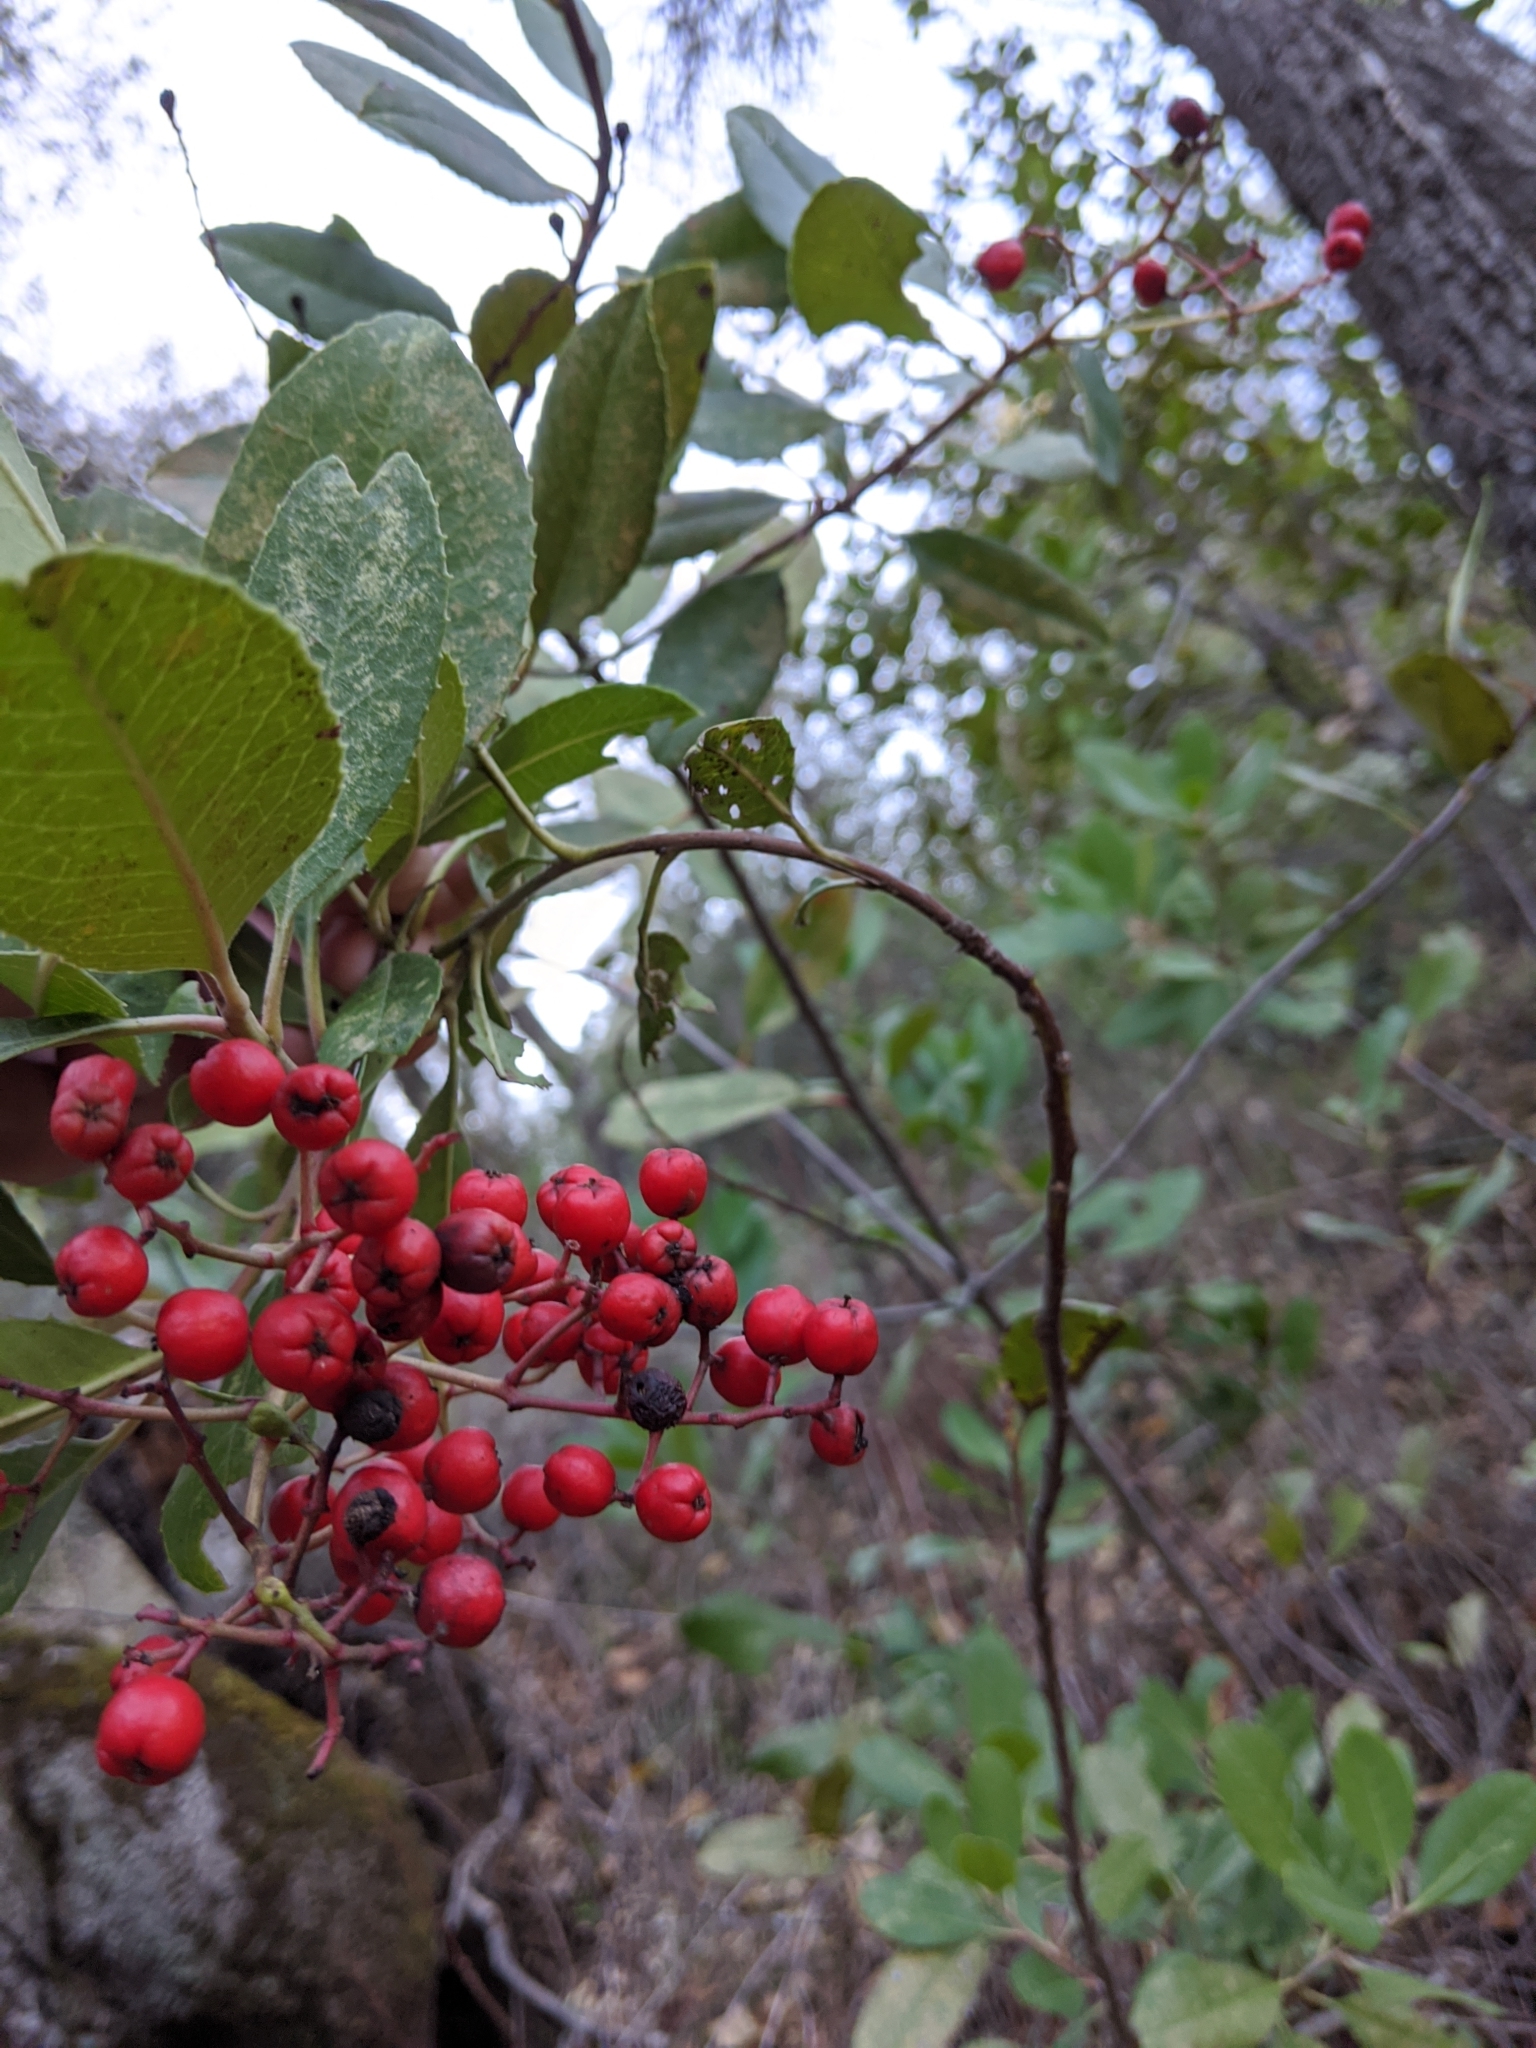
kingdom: Plantae
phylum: Tracheophyta
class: Magnoliopsida
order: Rosales
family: Rosaceae
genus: Heteromeles
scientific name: Heteromeles arbutifolia
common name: California-holly
